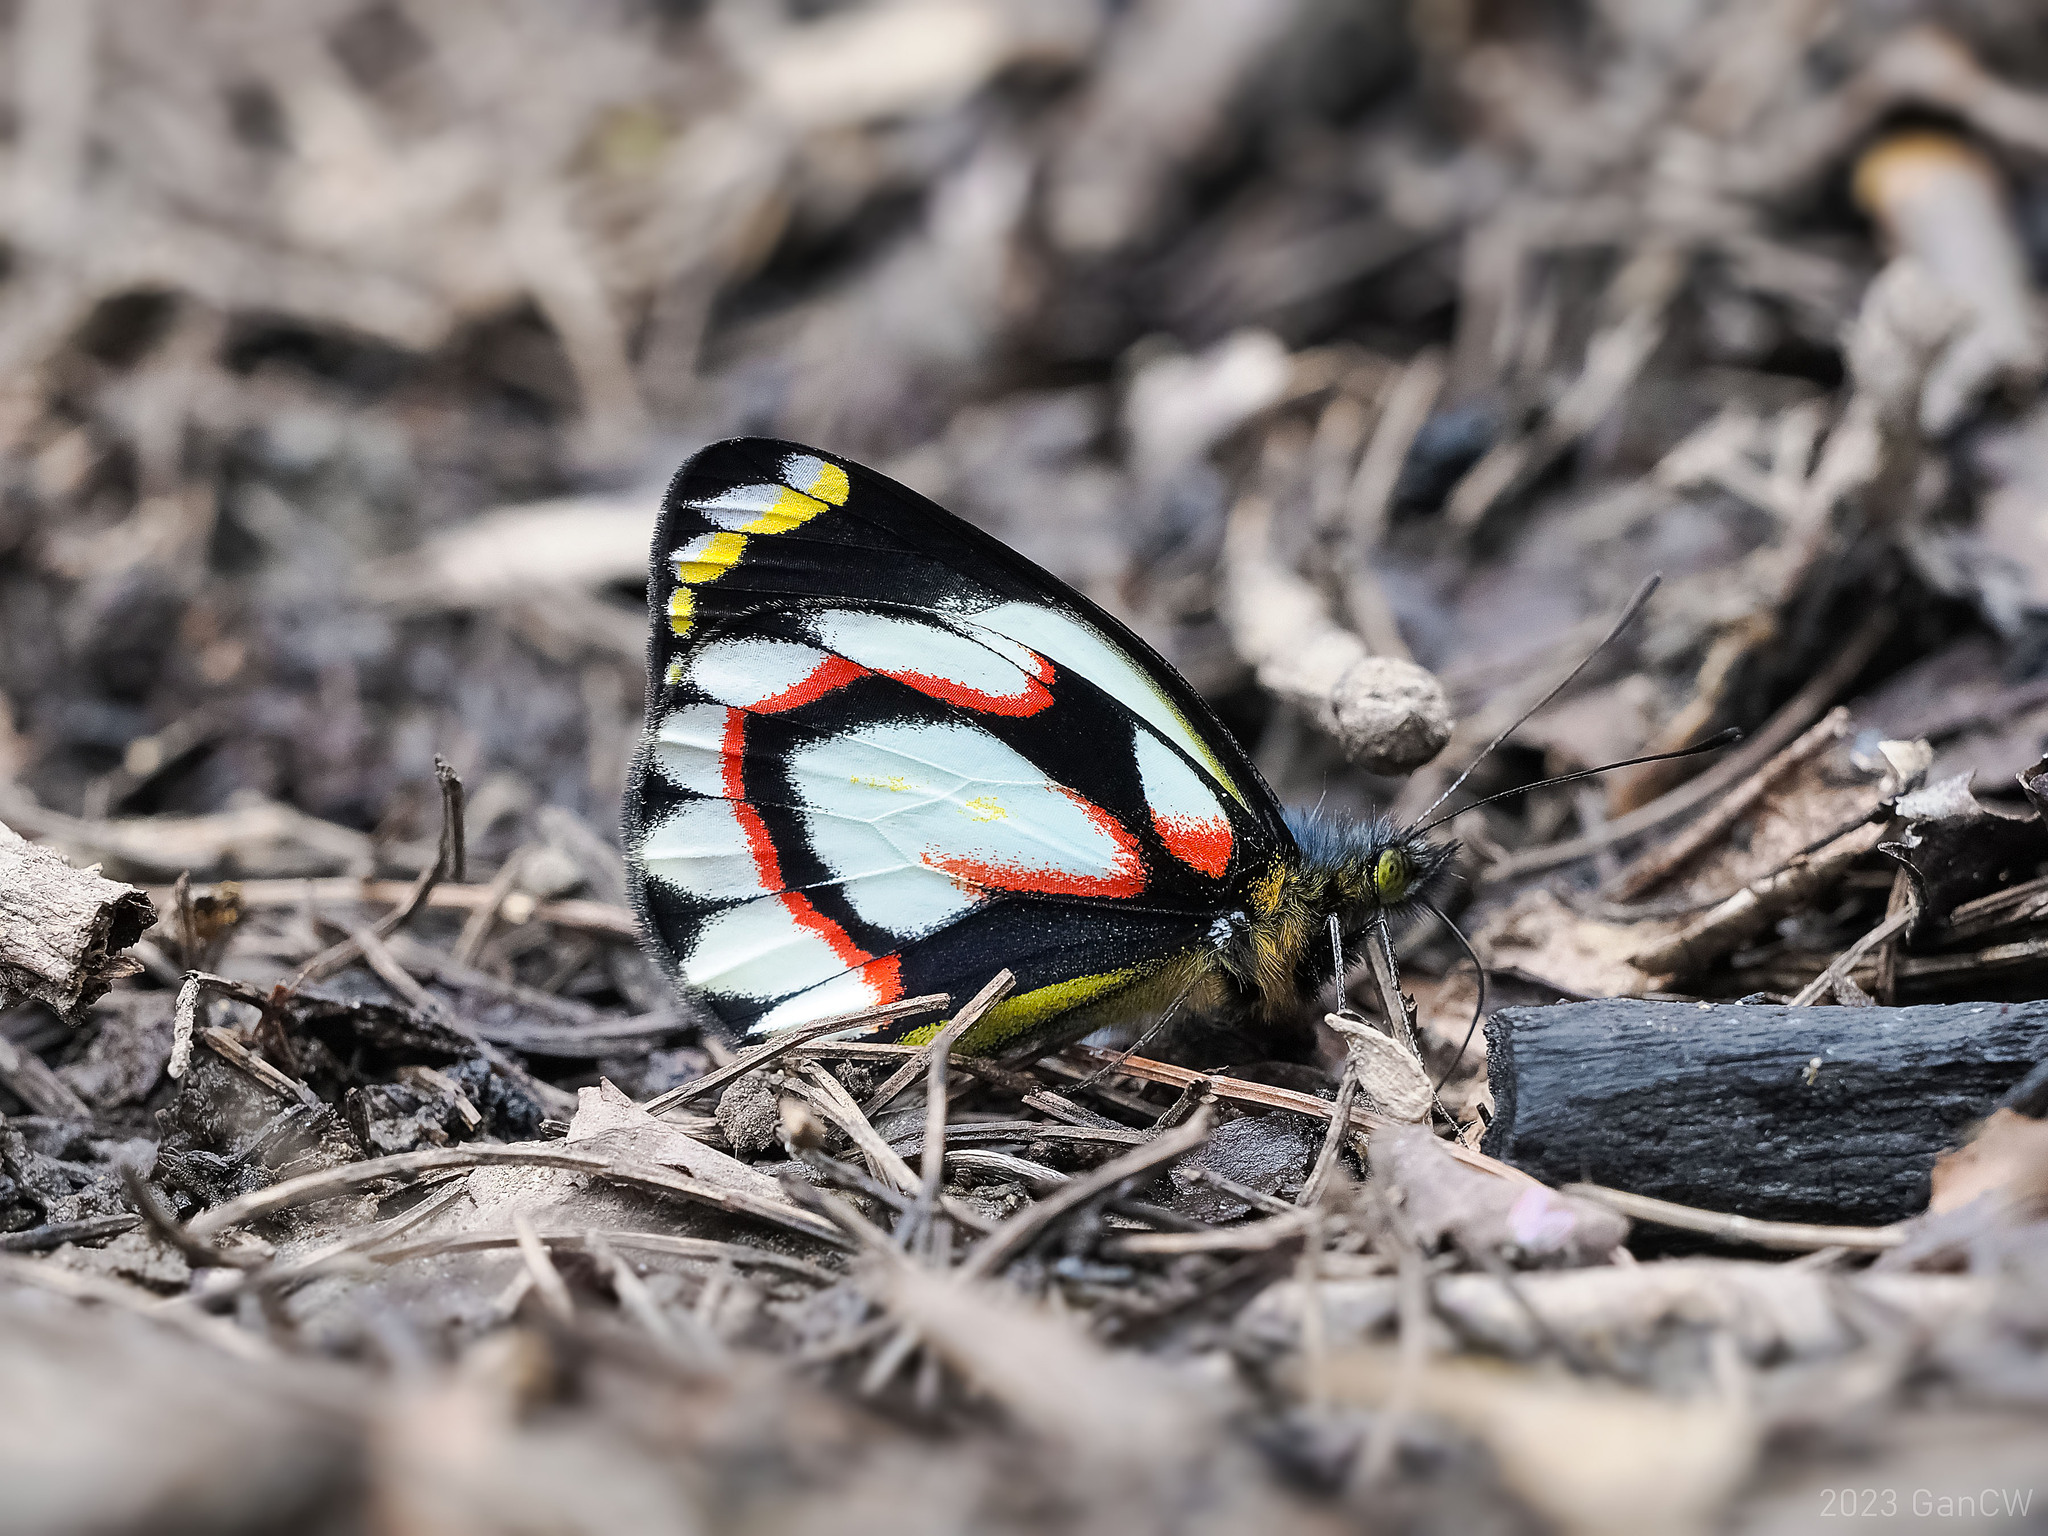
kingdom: Animalia
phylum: Arthropoda
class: Insecta
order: Lepidoptera
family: Pieridae
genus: Delias
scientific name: Delias flavistriga
